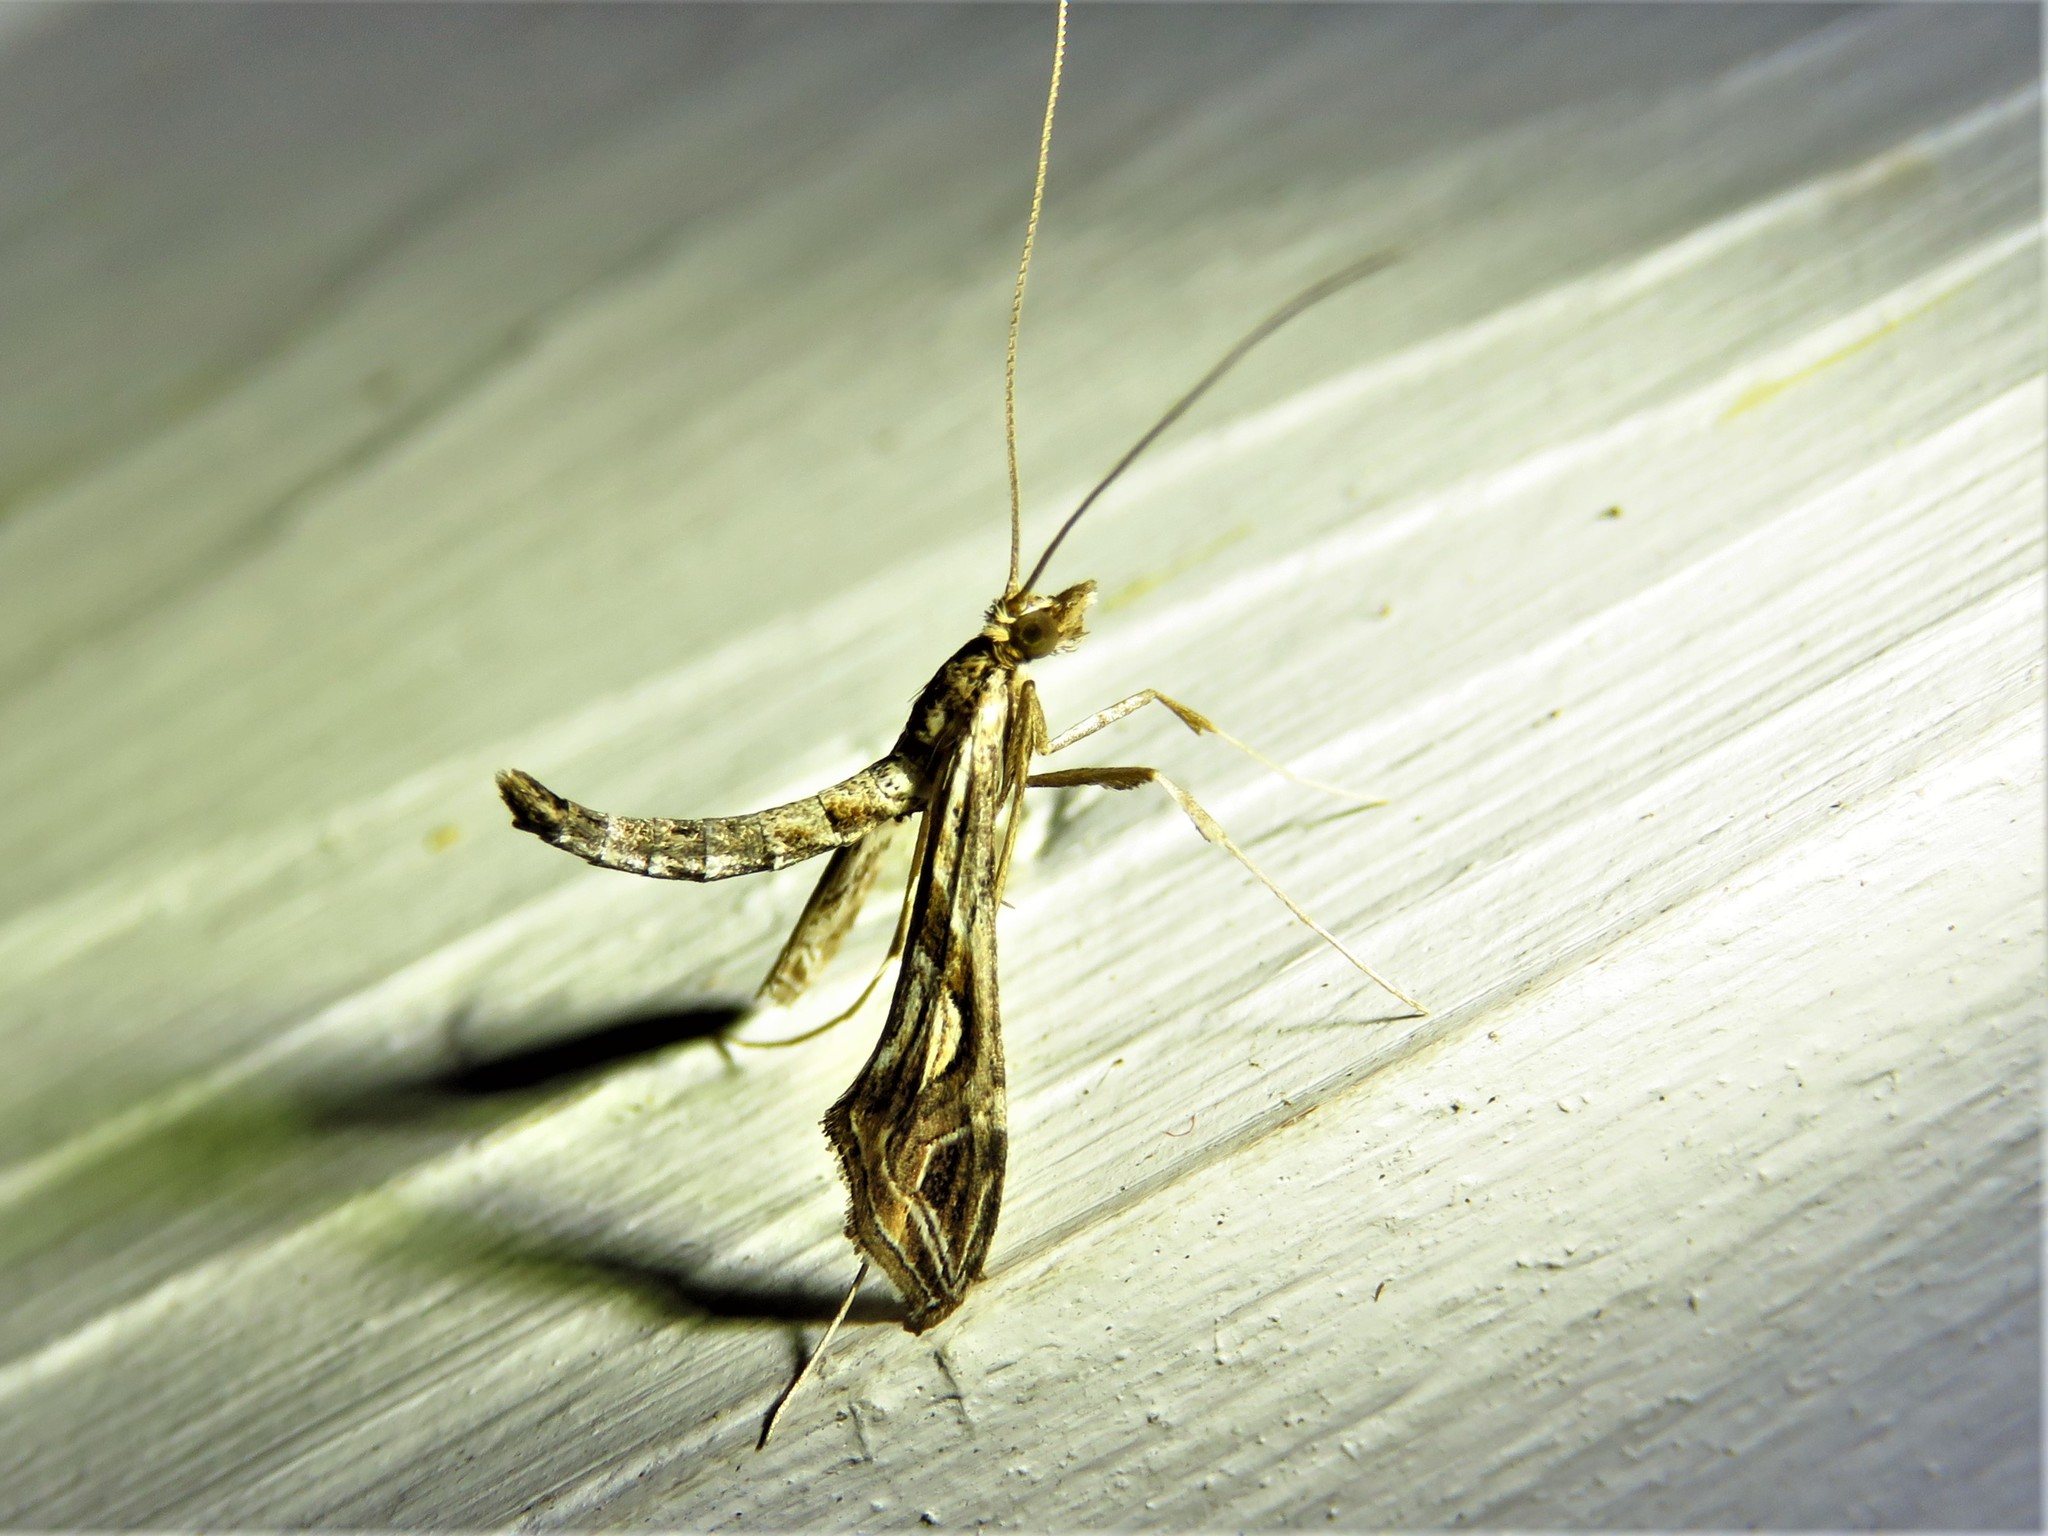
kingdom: Animalia
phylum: Arthropoda
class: Insecta
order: Lepidoptera
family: Crambidae
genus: Lineodes
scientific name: Lineodes integra
